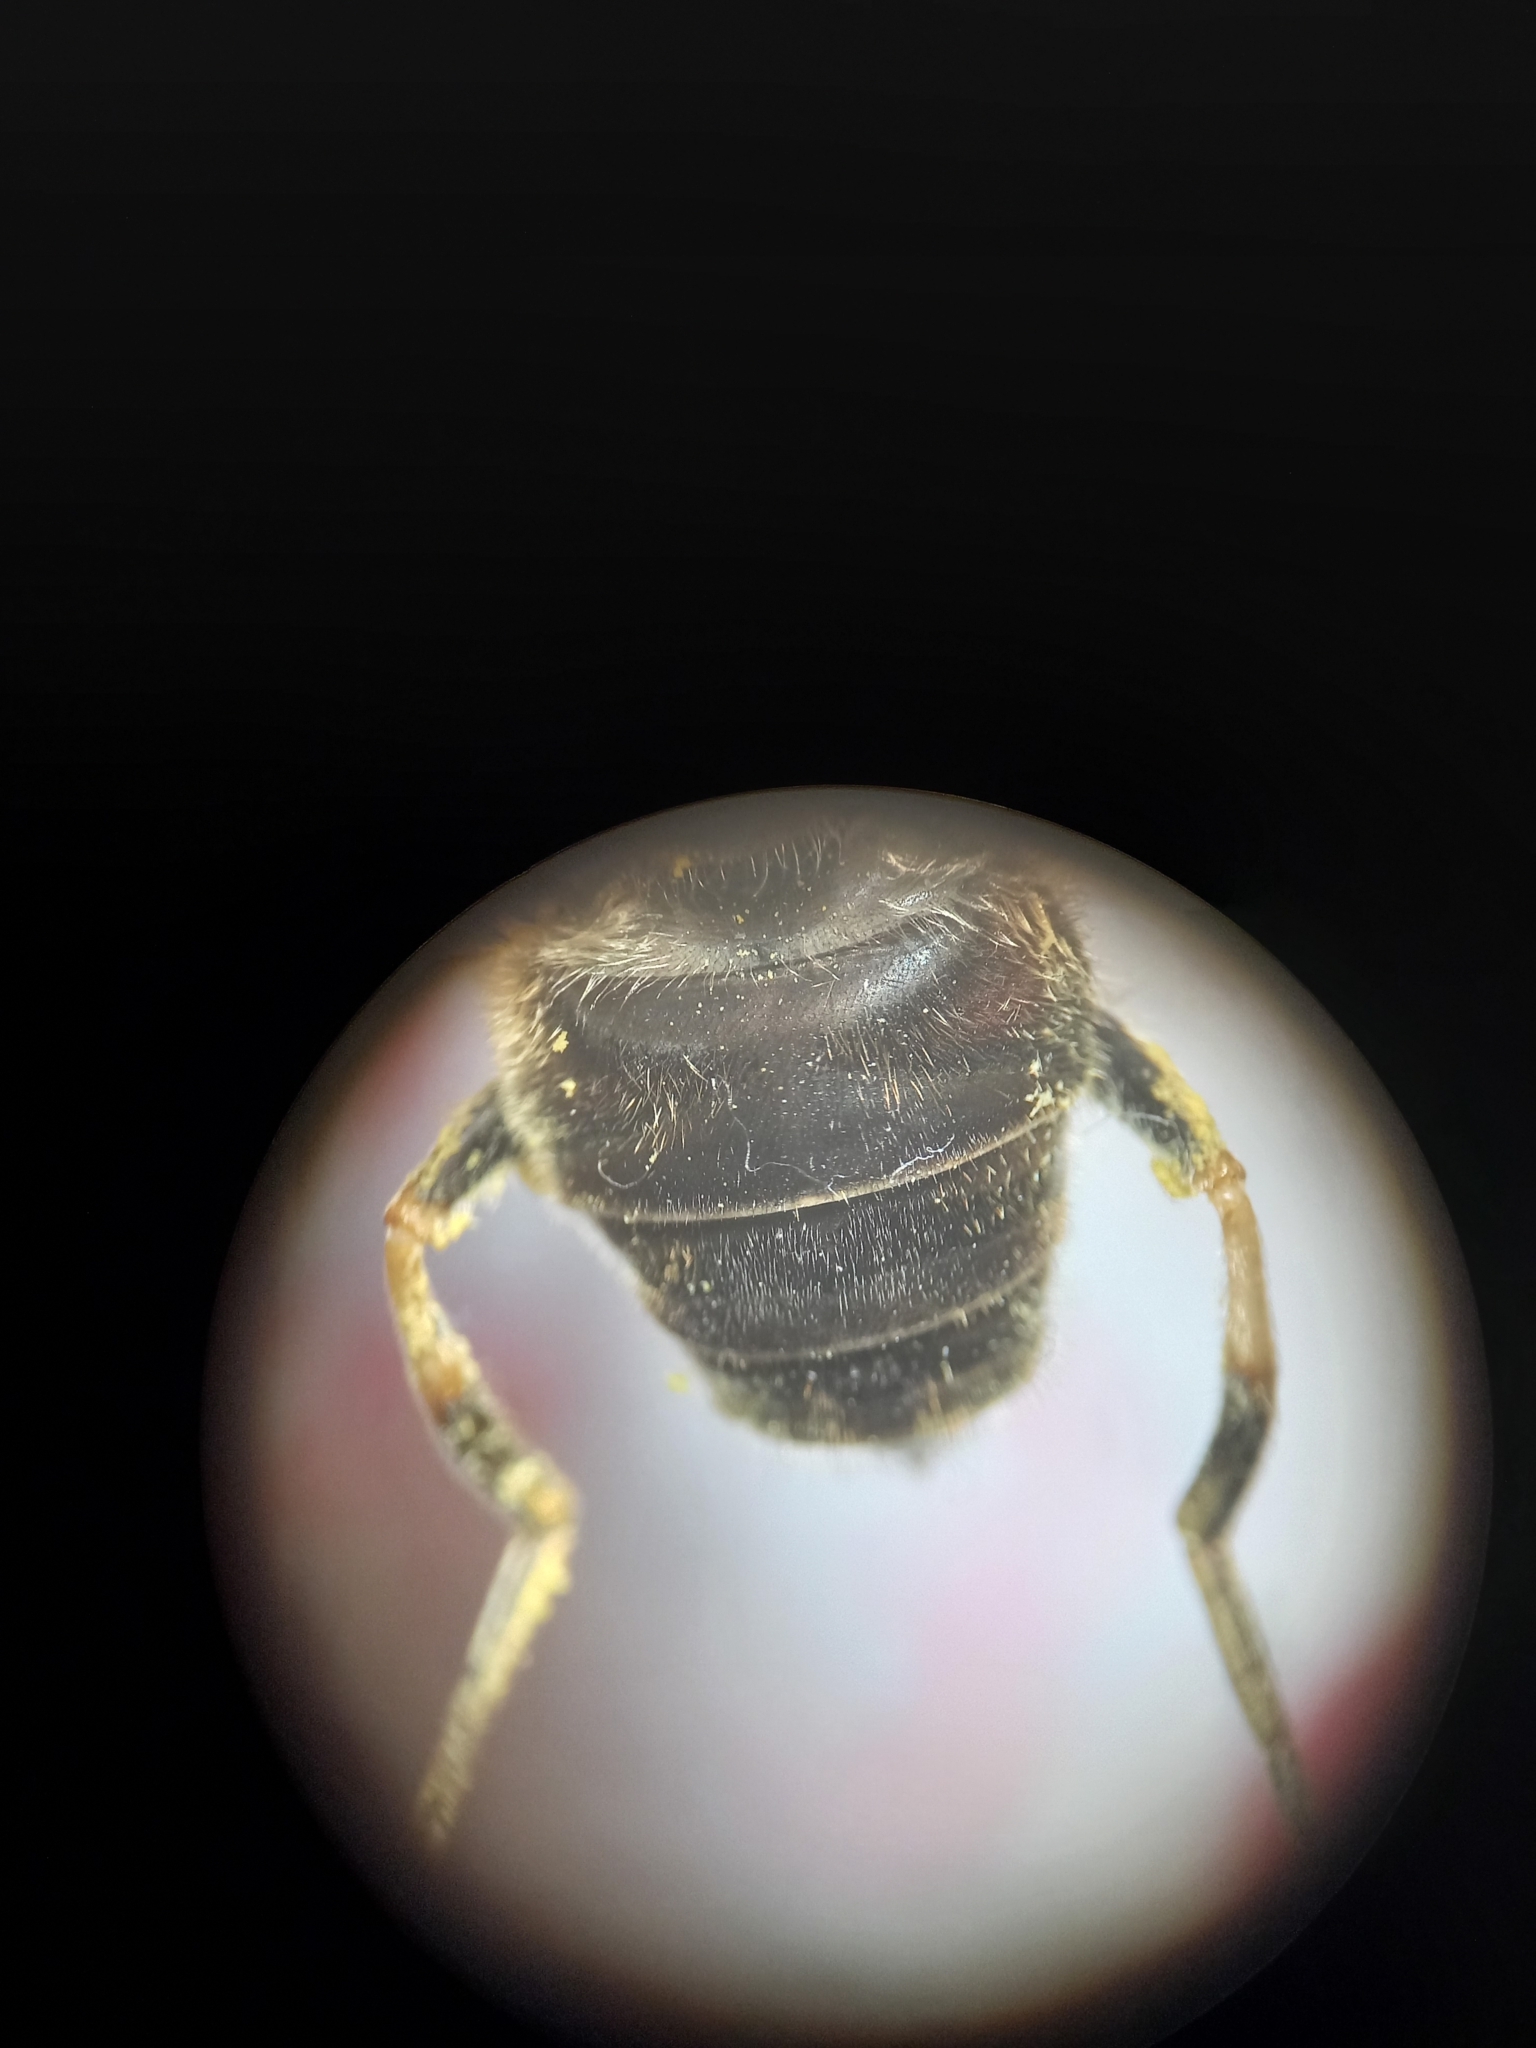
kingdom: Animalia
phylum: Arthropoda
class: Insecta
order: Diptera
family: Syrphidae
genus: Eristalis
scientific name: Eristalis nemorum
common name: Orange-spined drone fly
